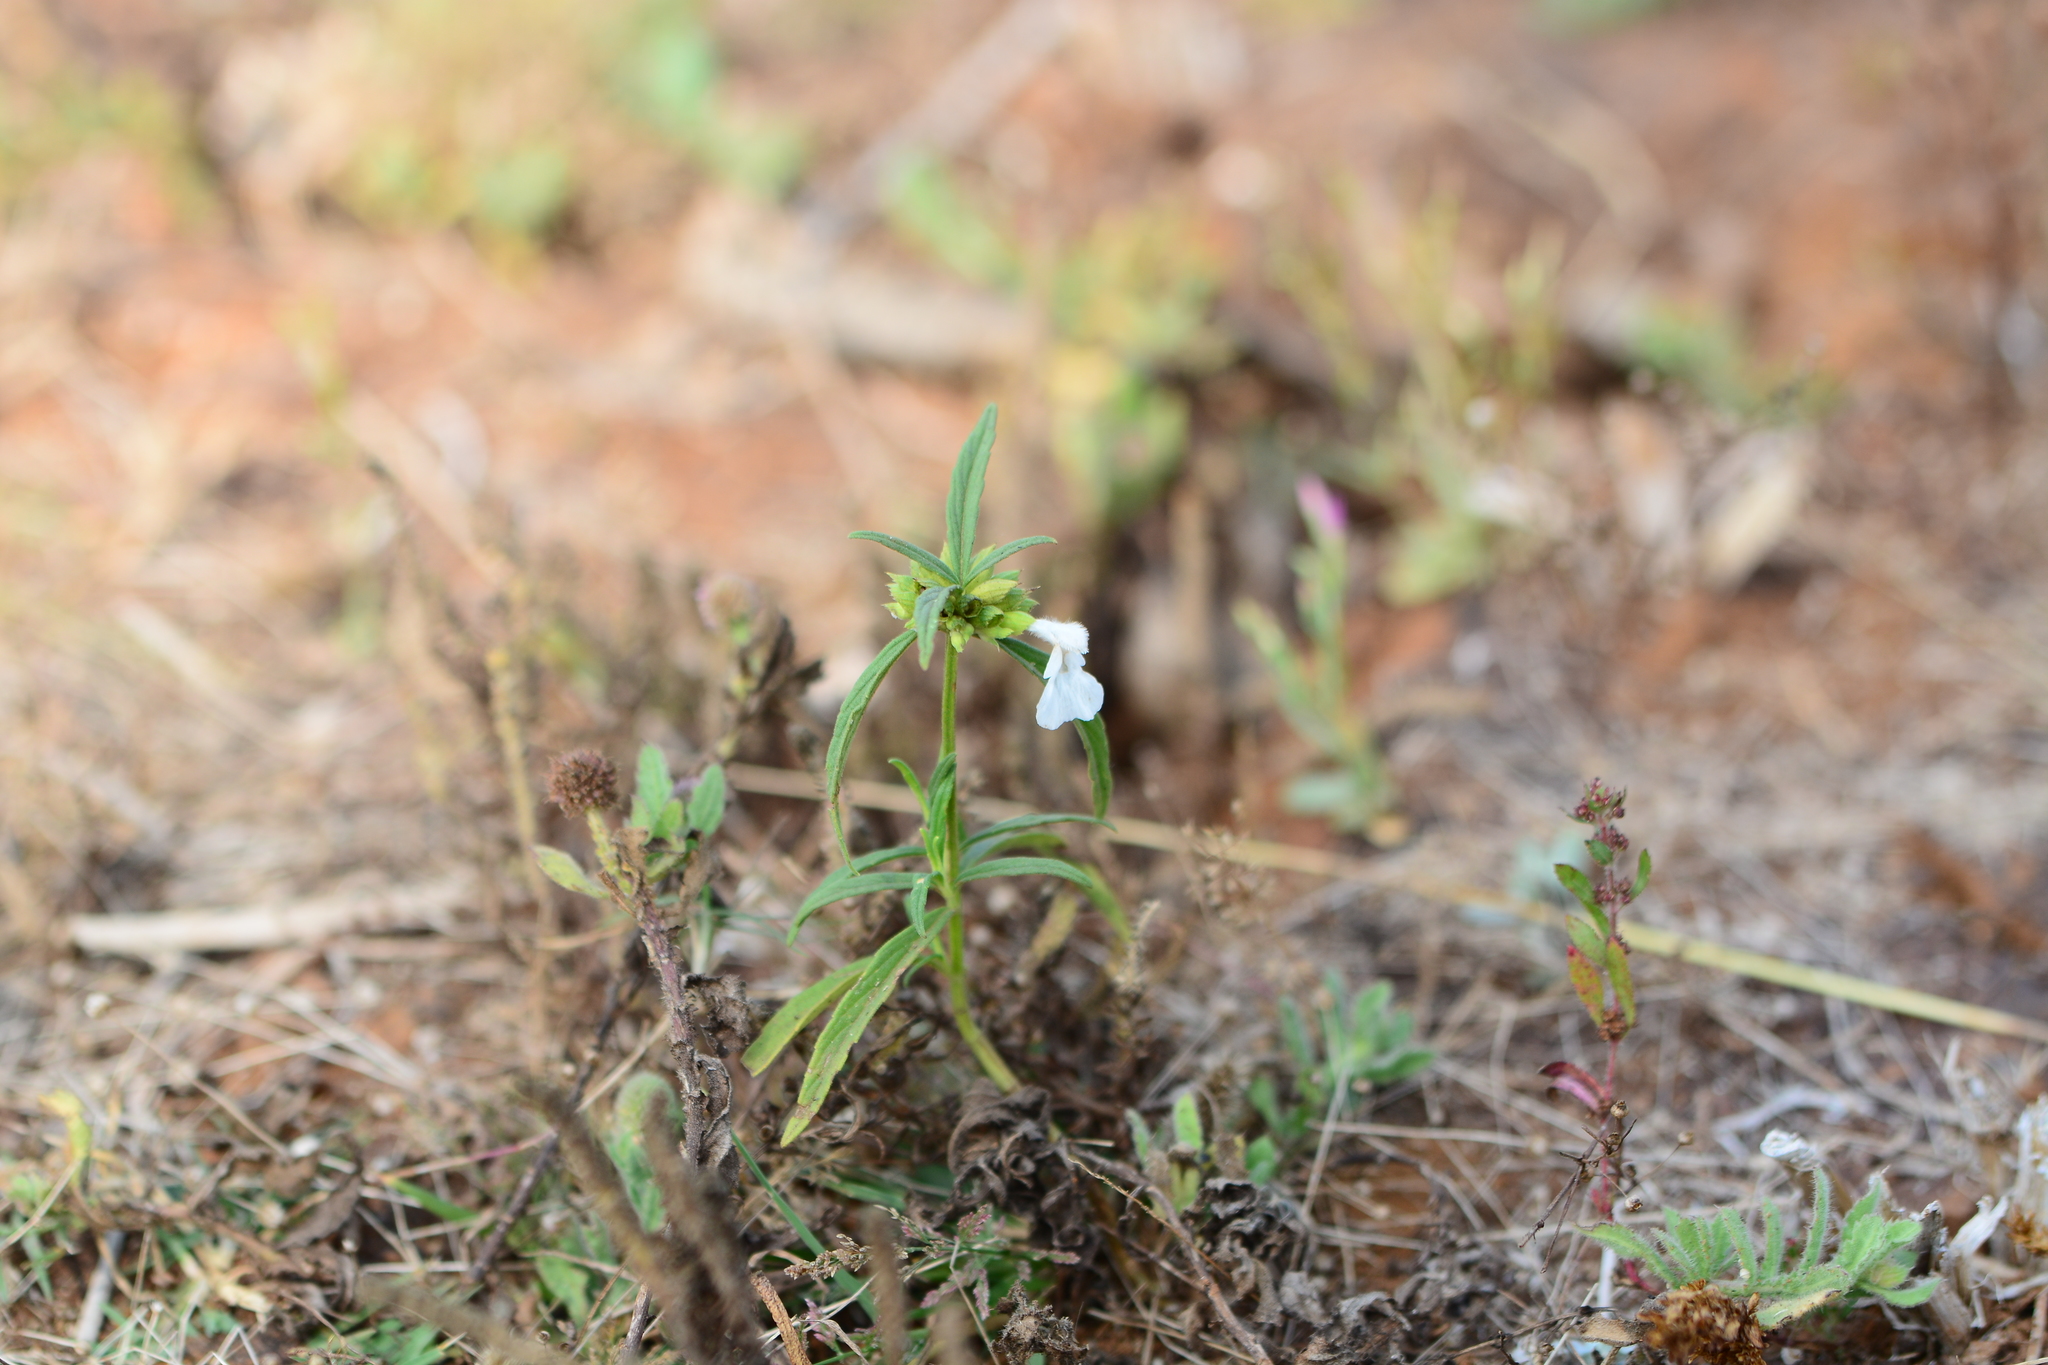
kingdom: Plantae
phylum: Tracheophyta
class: Magnoliopsida
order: Gentianales
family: Gentianaceae
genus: Centaurium
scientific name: Centaurium pulchellum
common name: Lesser centaury
